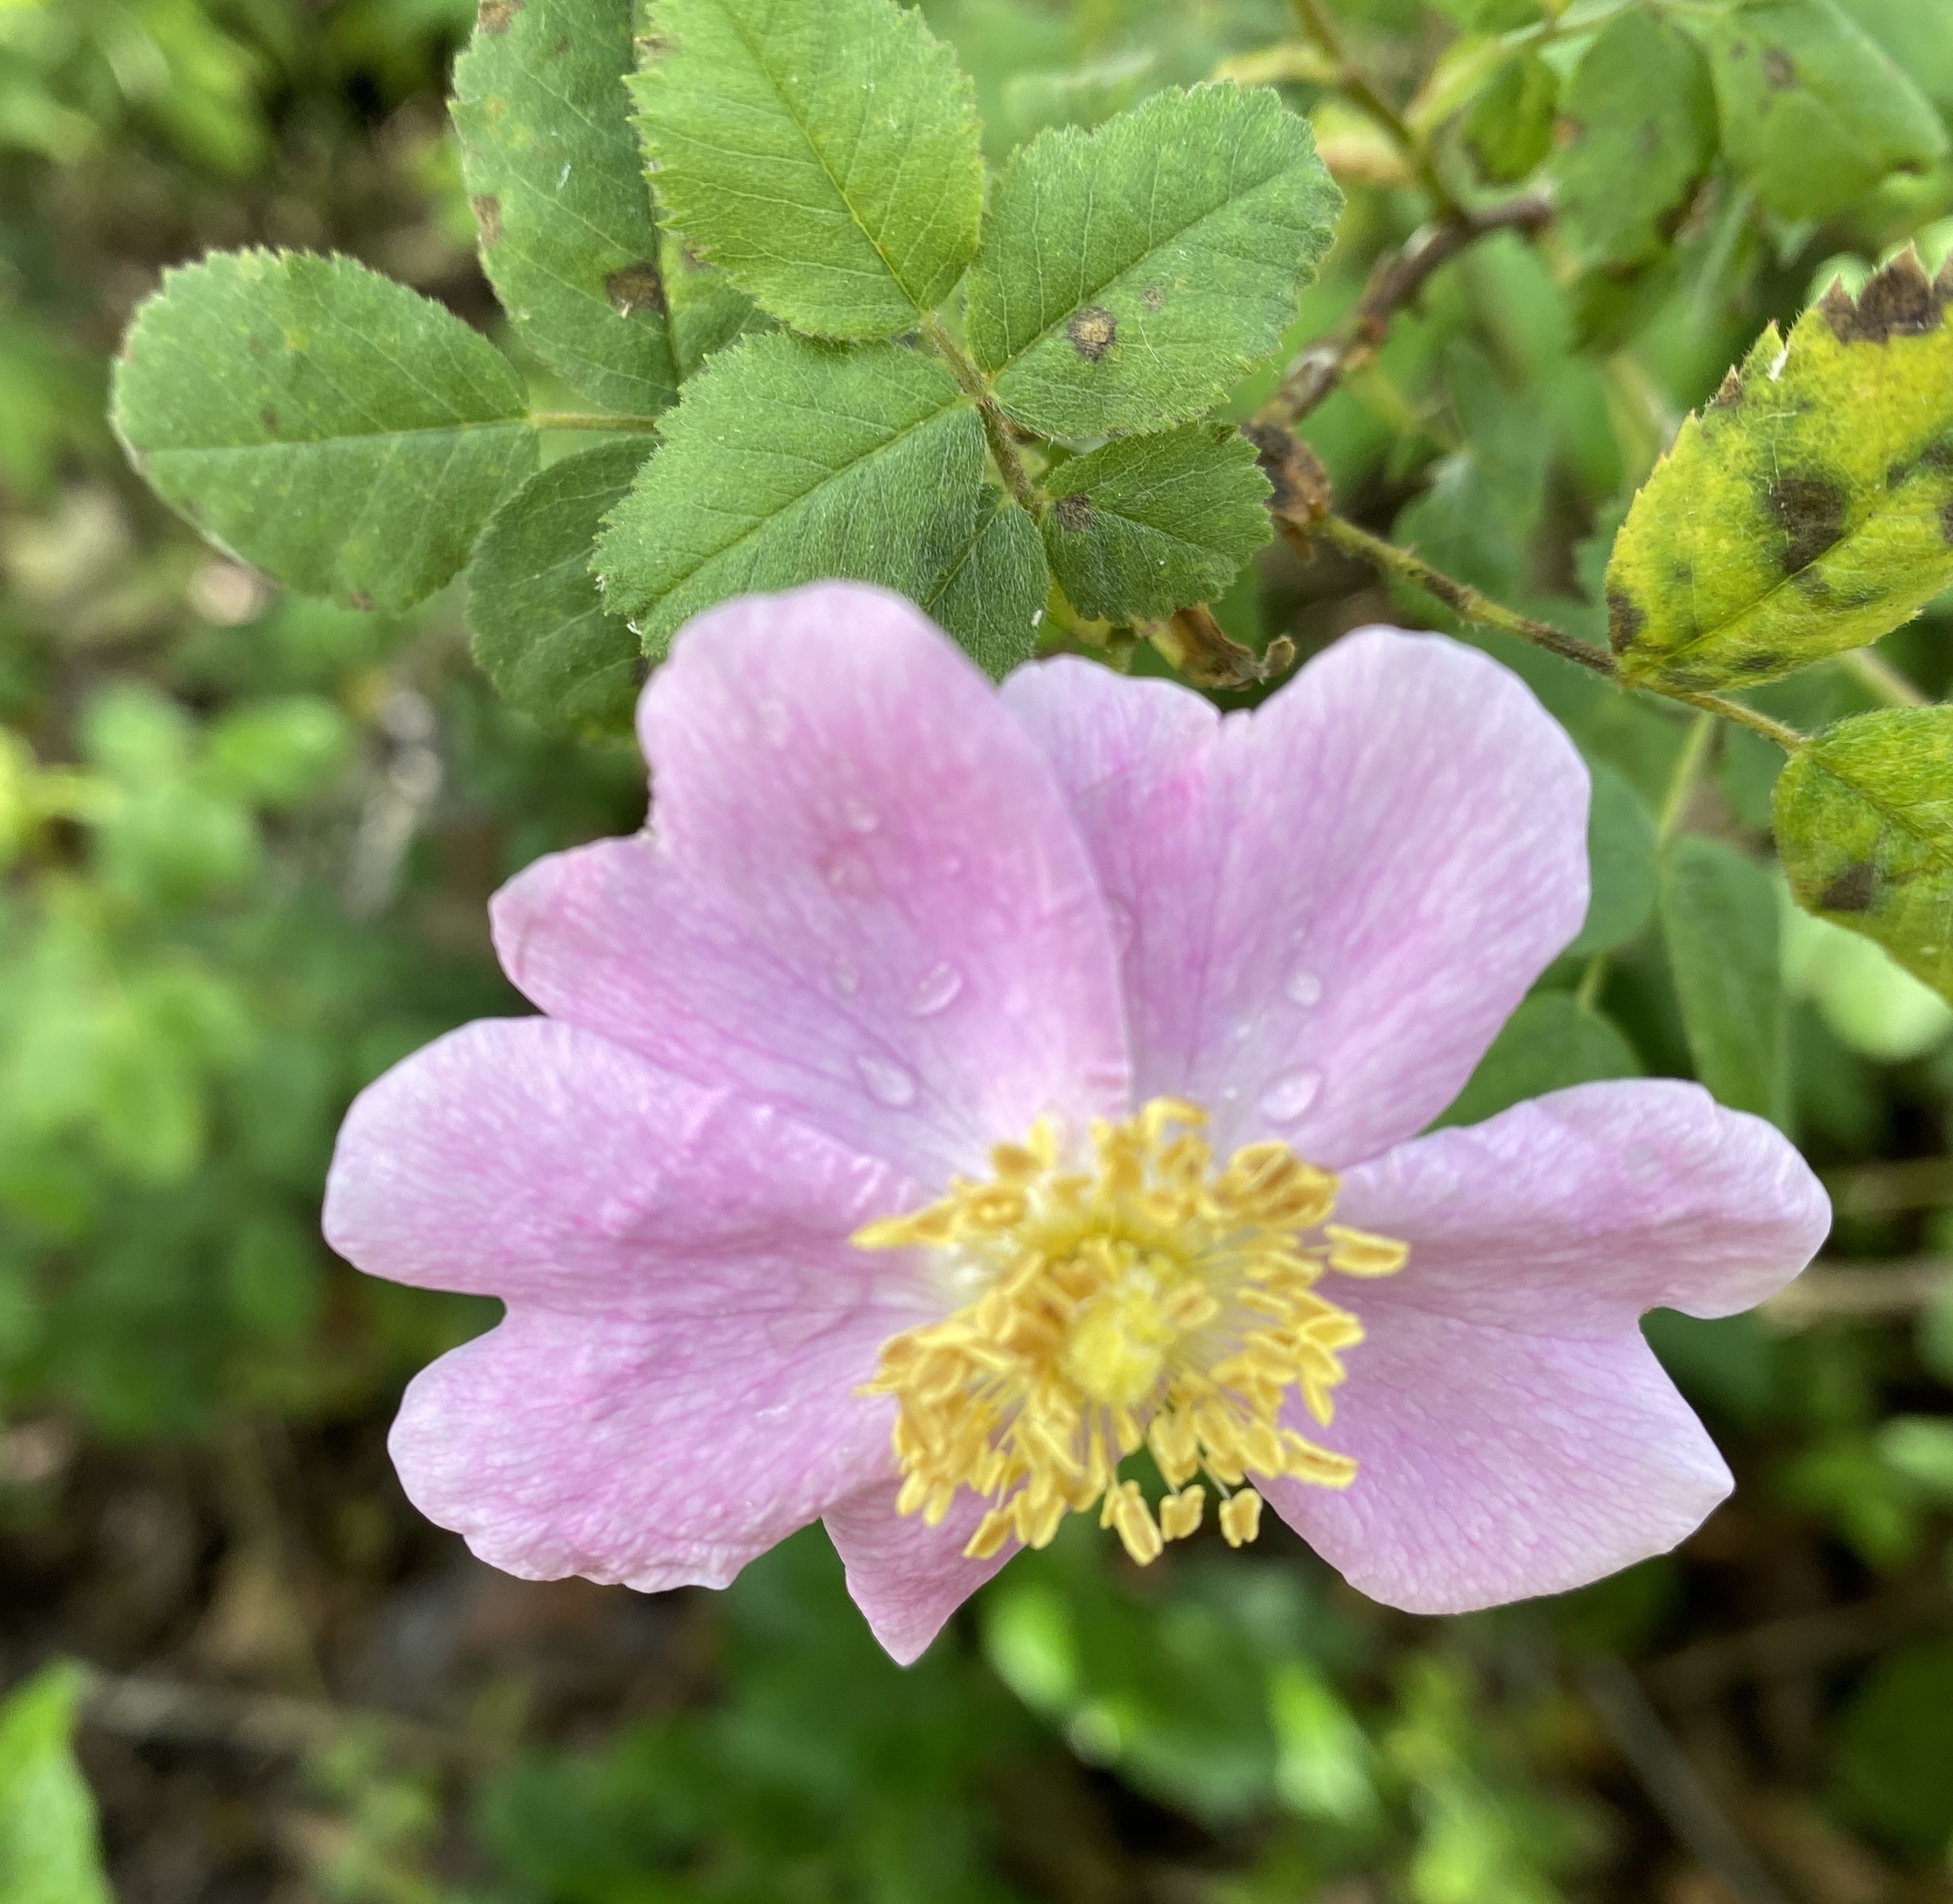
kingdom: Plantae
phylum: Tracheophyta
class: Magnoliopsida
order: Rosales
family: Rosaceae
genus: Rosa
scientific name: Rosa californica
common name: California rose
